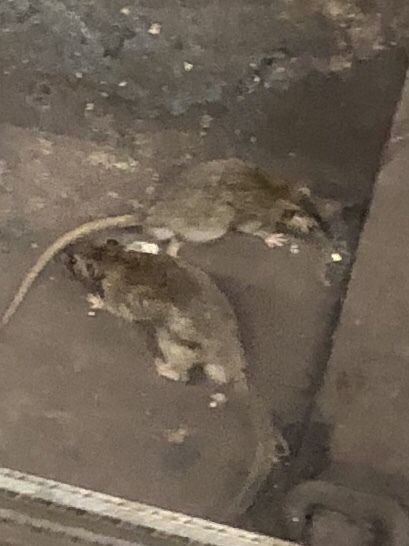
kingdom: Animalia
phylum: Chordata
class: Mammalia
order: Rodentia
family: Muridae
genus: Rattus
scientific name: Rattus norvegicus
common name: Brown rat
